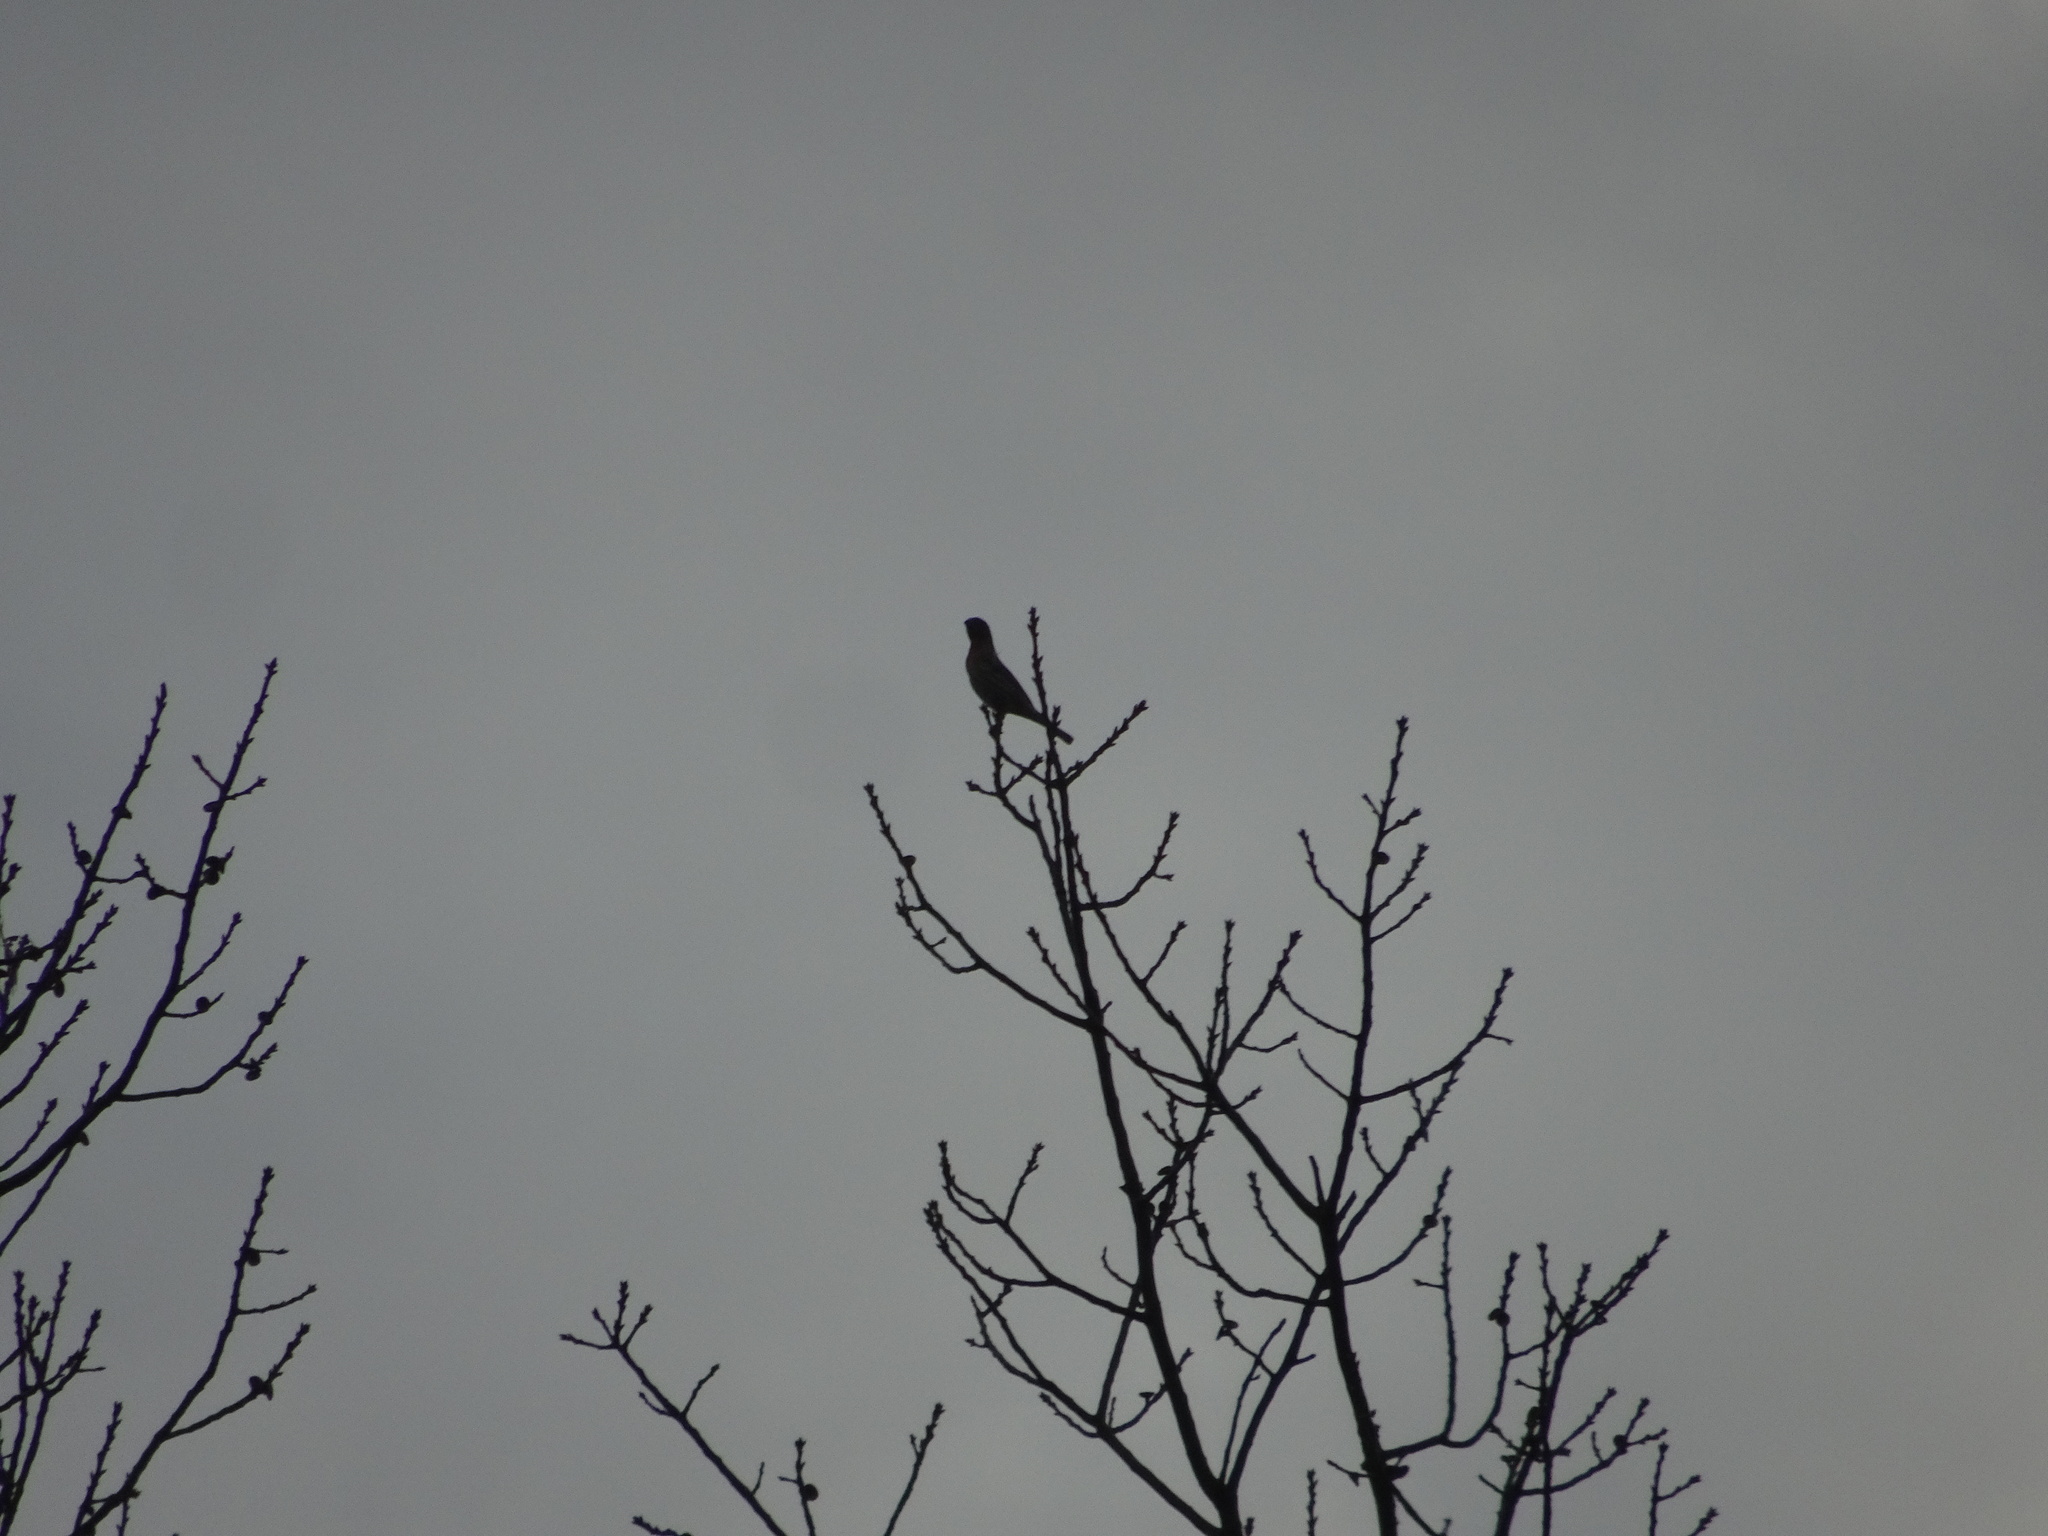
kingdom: Animalia
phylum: Chordata
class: Aves
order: Passeriformes
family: Fringillidae
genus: Haemorhous
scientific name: Haemorhous mexicanus
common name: House finch
